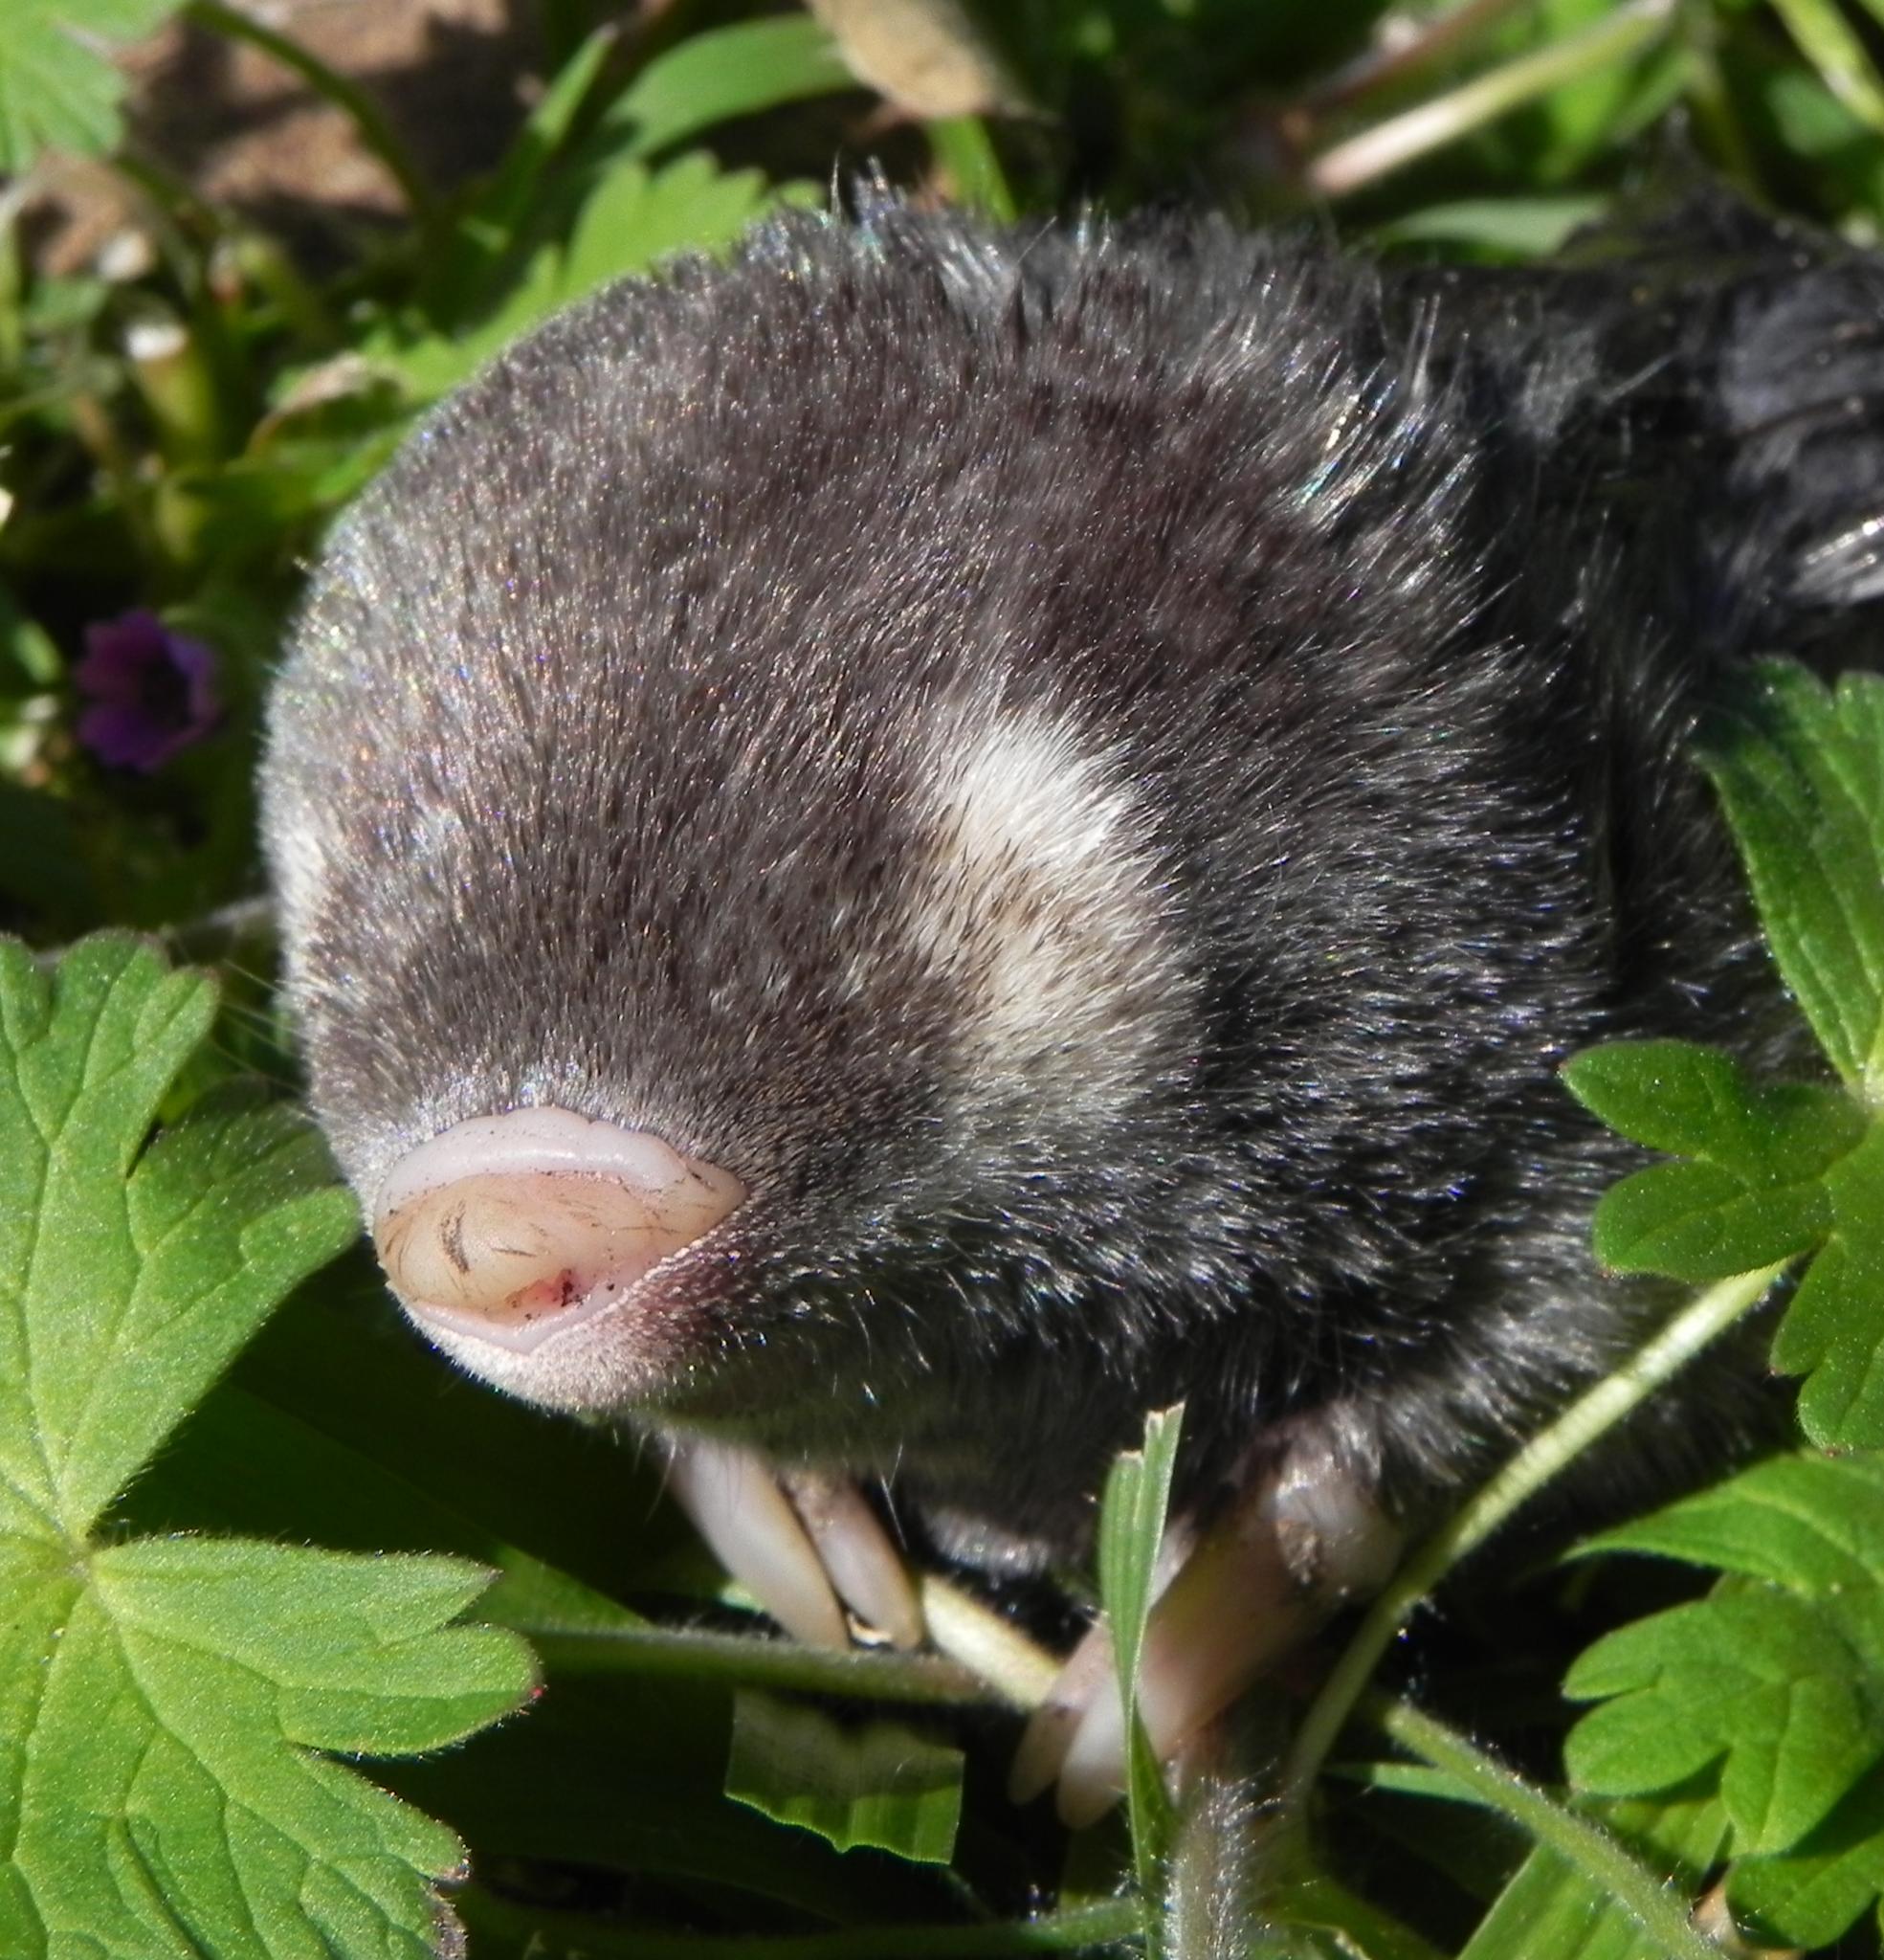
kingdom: Animalia
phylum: Chordata
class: Mammalia
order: Afrosoricida
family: Chrysochloridae
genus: Chrysochloris
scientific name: Chrysochloris asiatica
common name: Cape golden mole
